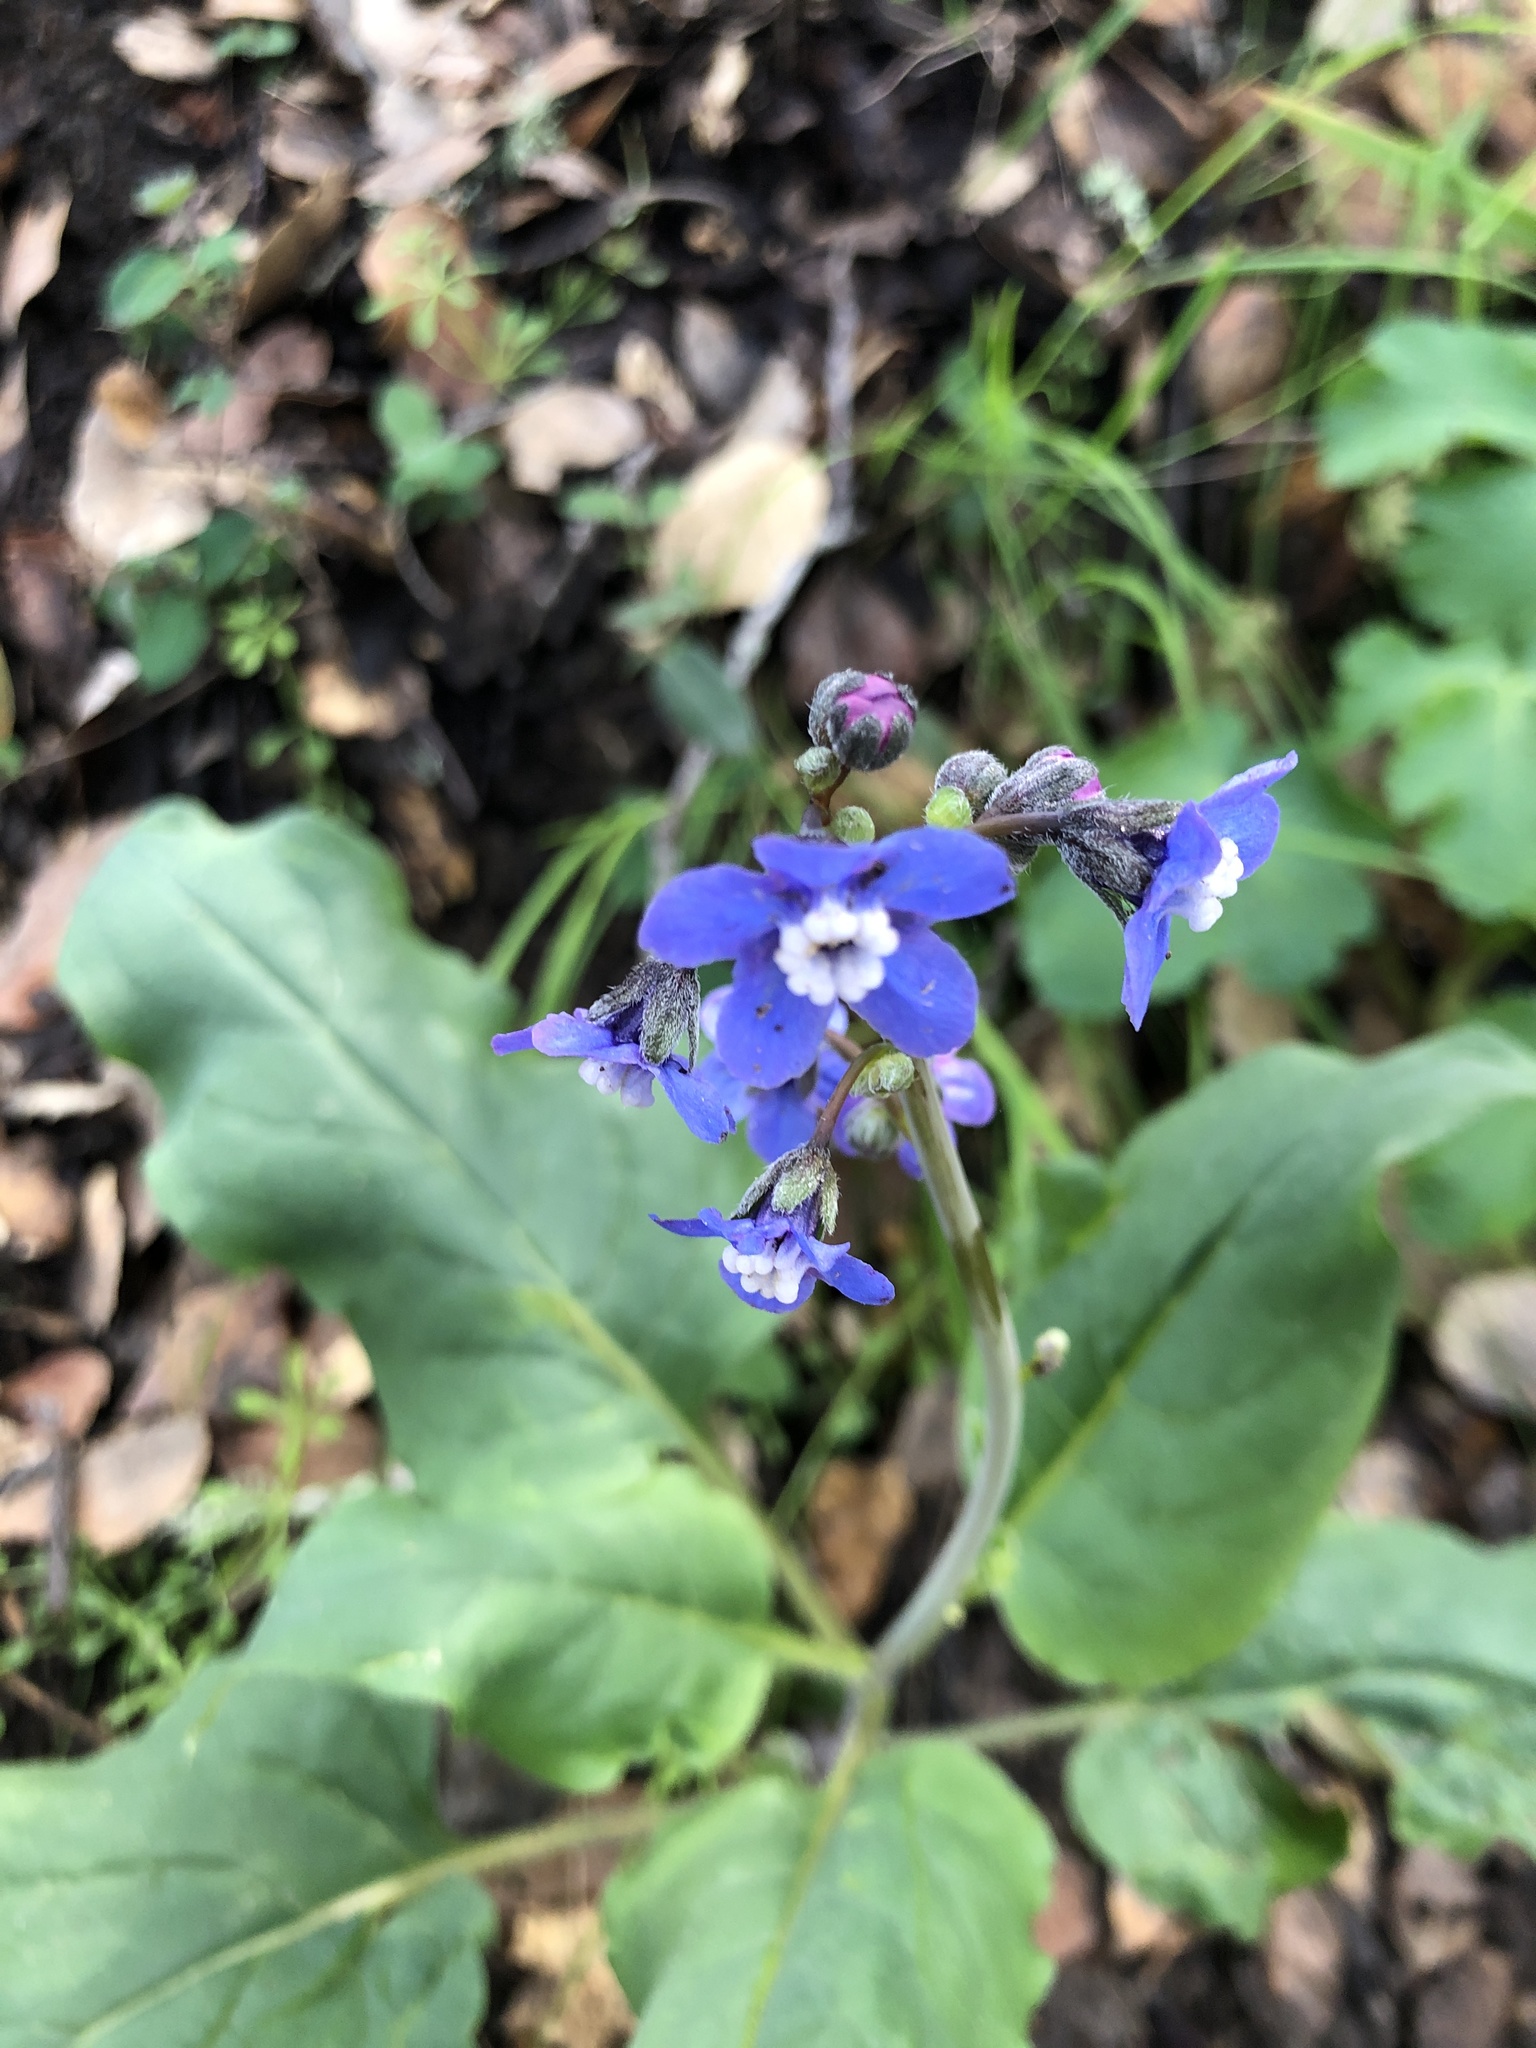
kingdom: Plantae
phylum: Tracheophyta
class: Magnoliopsida
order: Boraginales
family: Boraginaceae
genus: Adelinia
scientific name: Adelinia grande
